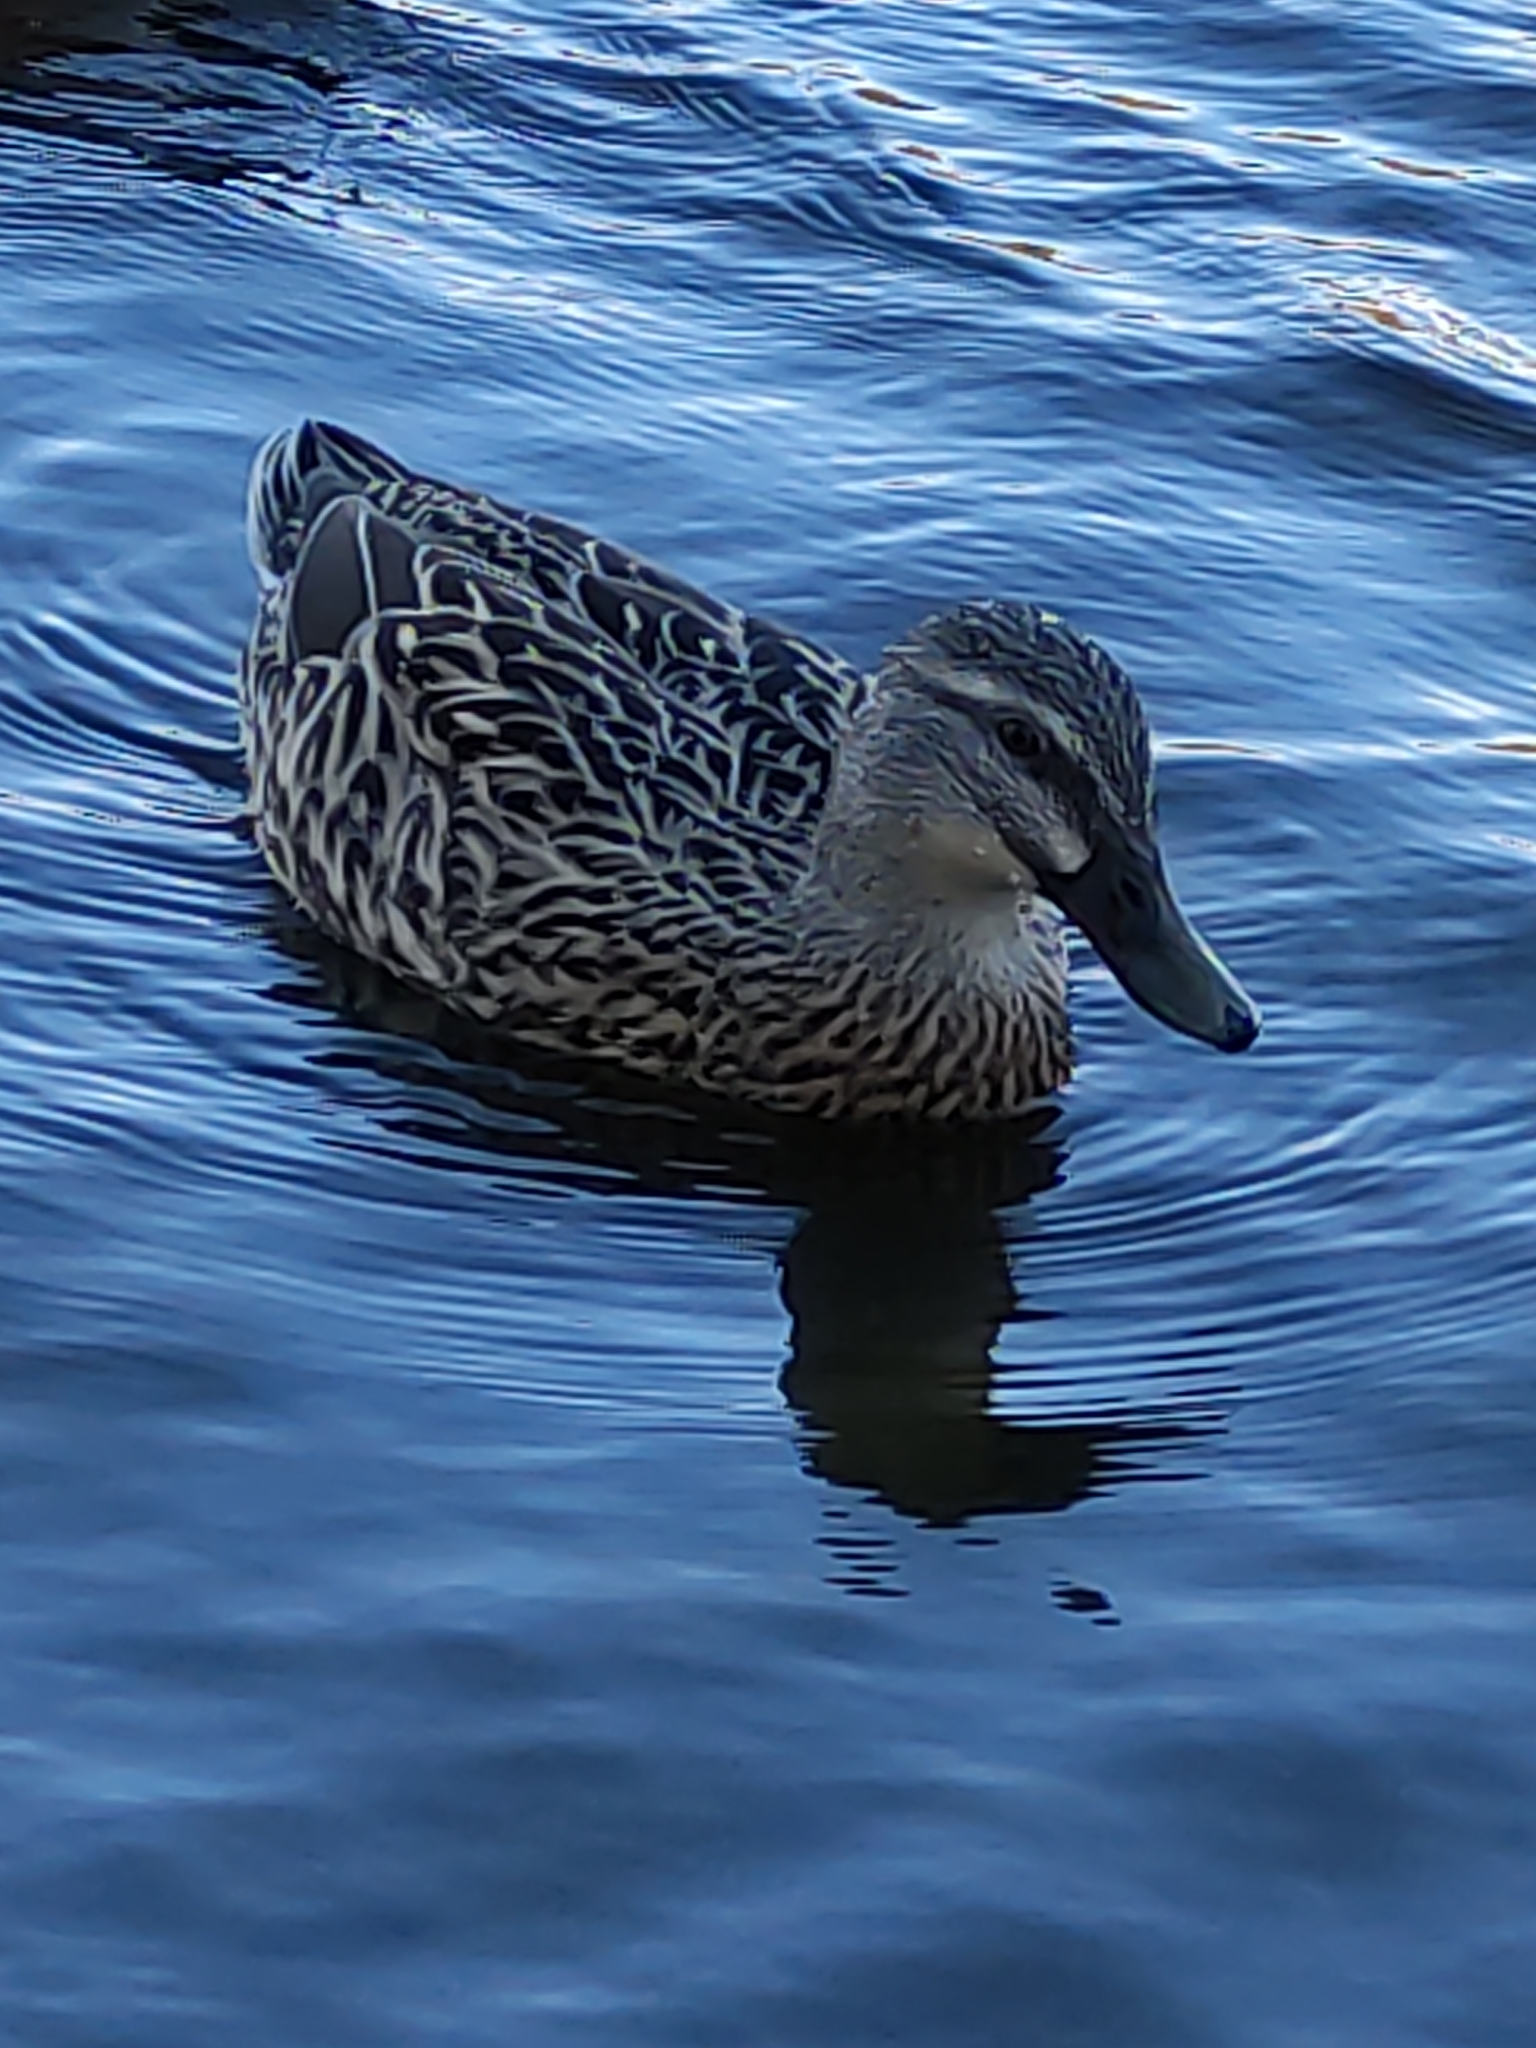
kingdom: Animalia
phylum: Chordata
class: Aves
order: Anseriformes
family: Anatidae
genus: Anas
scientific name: Anas platyrhynchos
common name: Mallard
